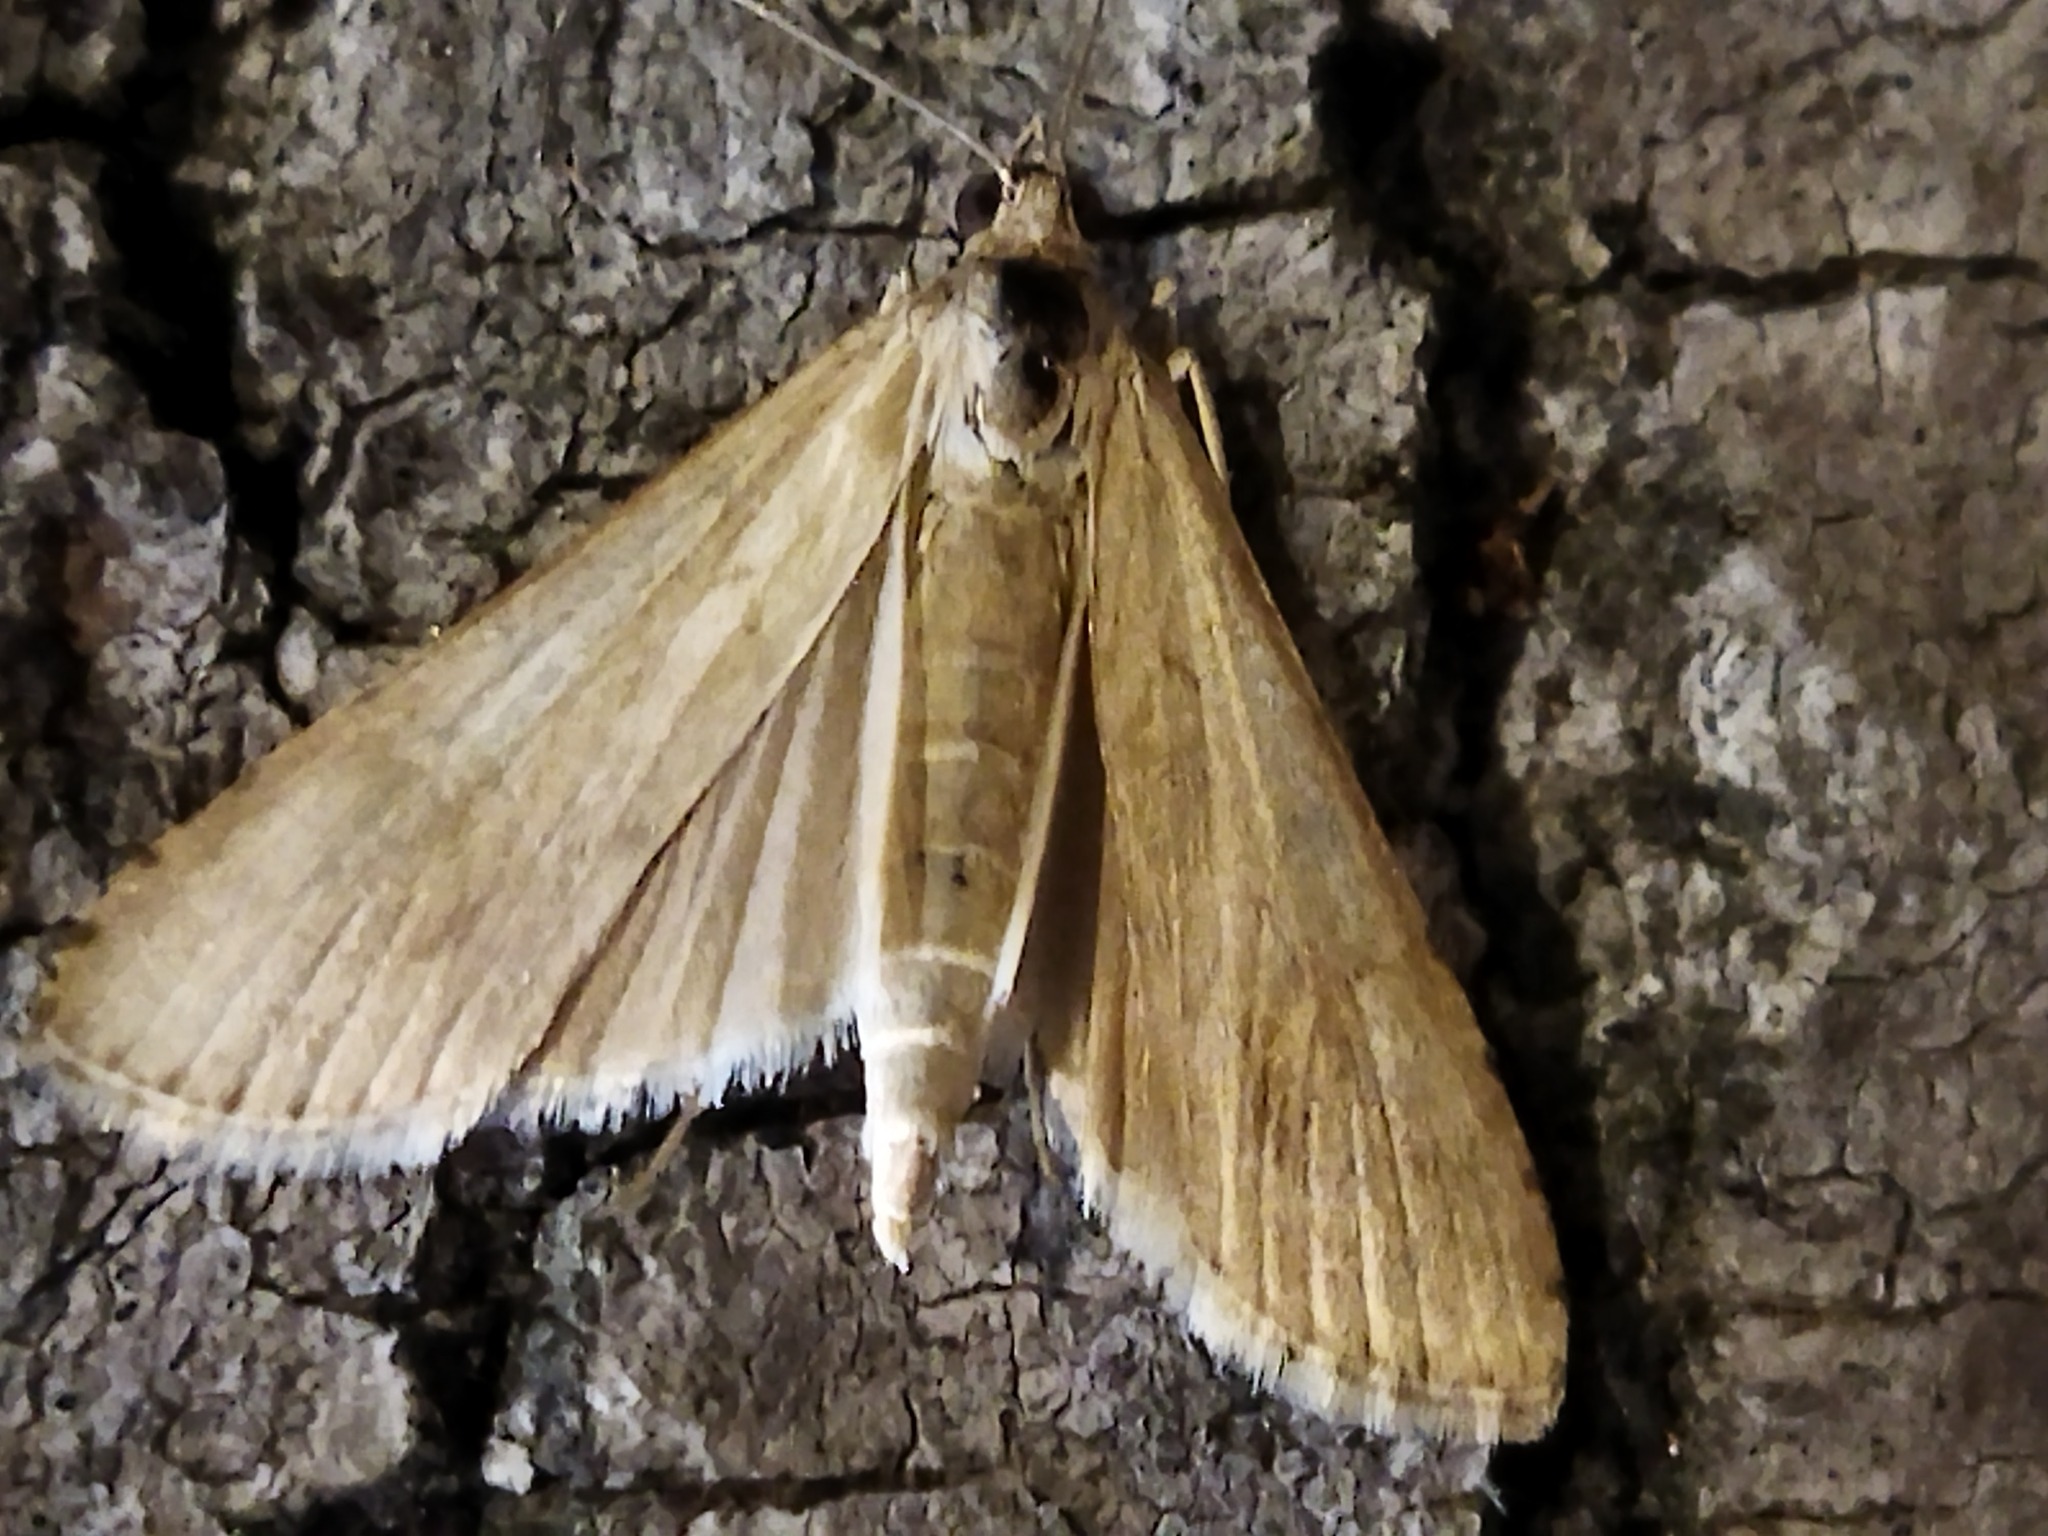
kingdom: Animalia
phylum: Arthropoda
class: Insecta
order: Lepidoptera
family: Crambidae
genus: Nomophila
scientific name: Nomophila noctuella
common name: Rush veneer
